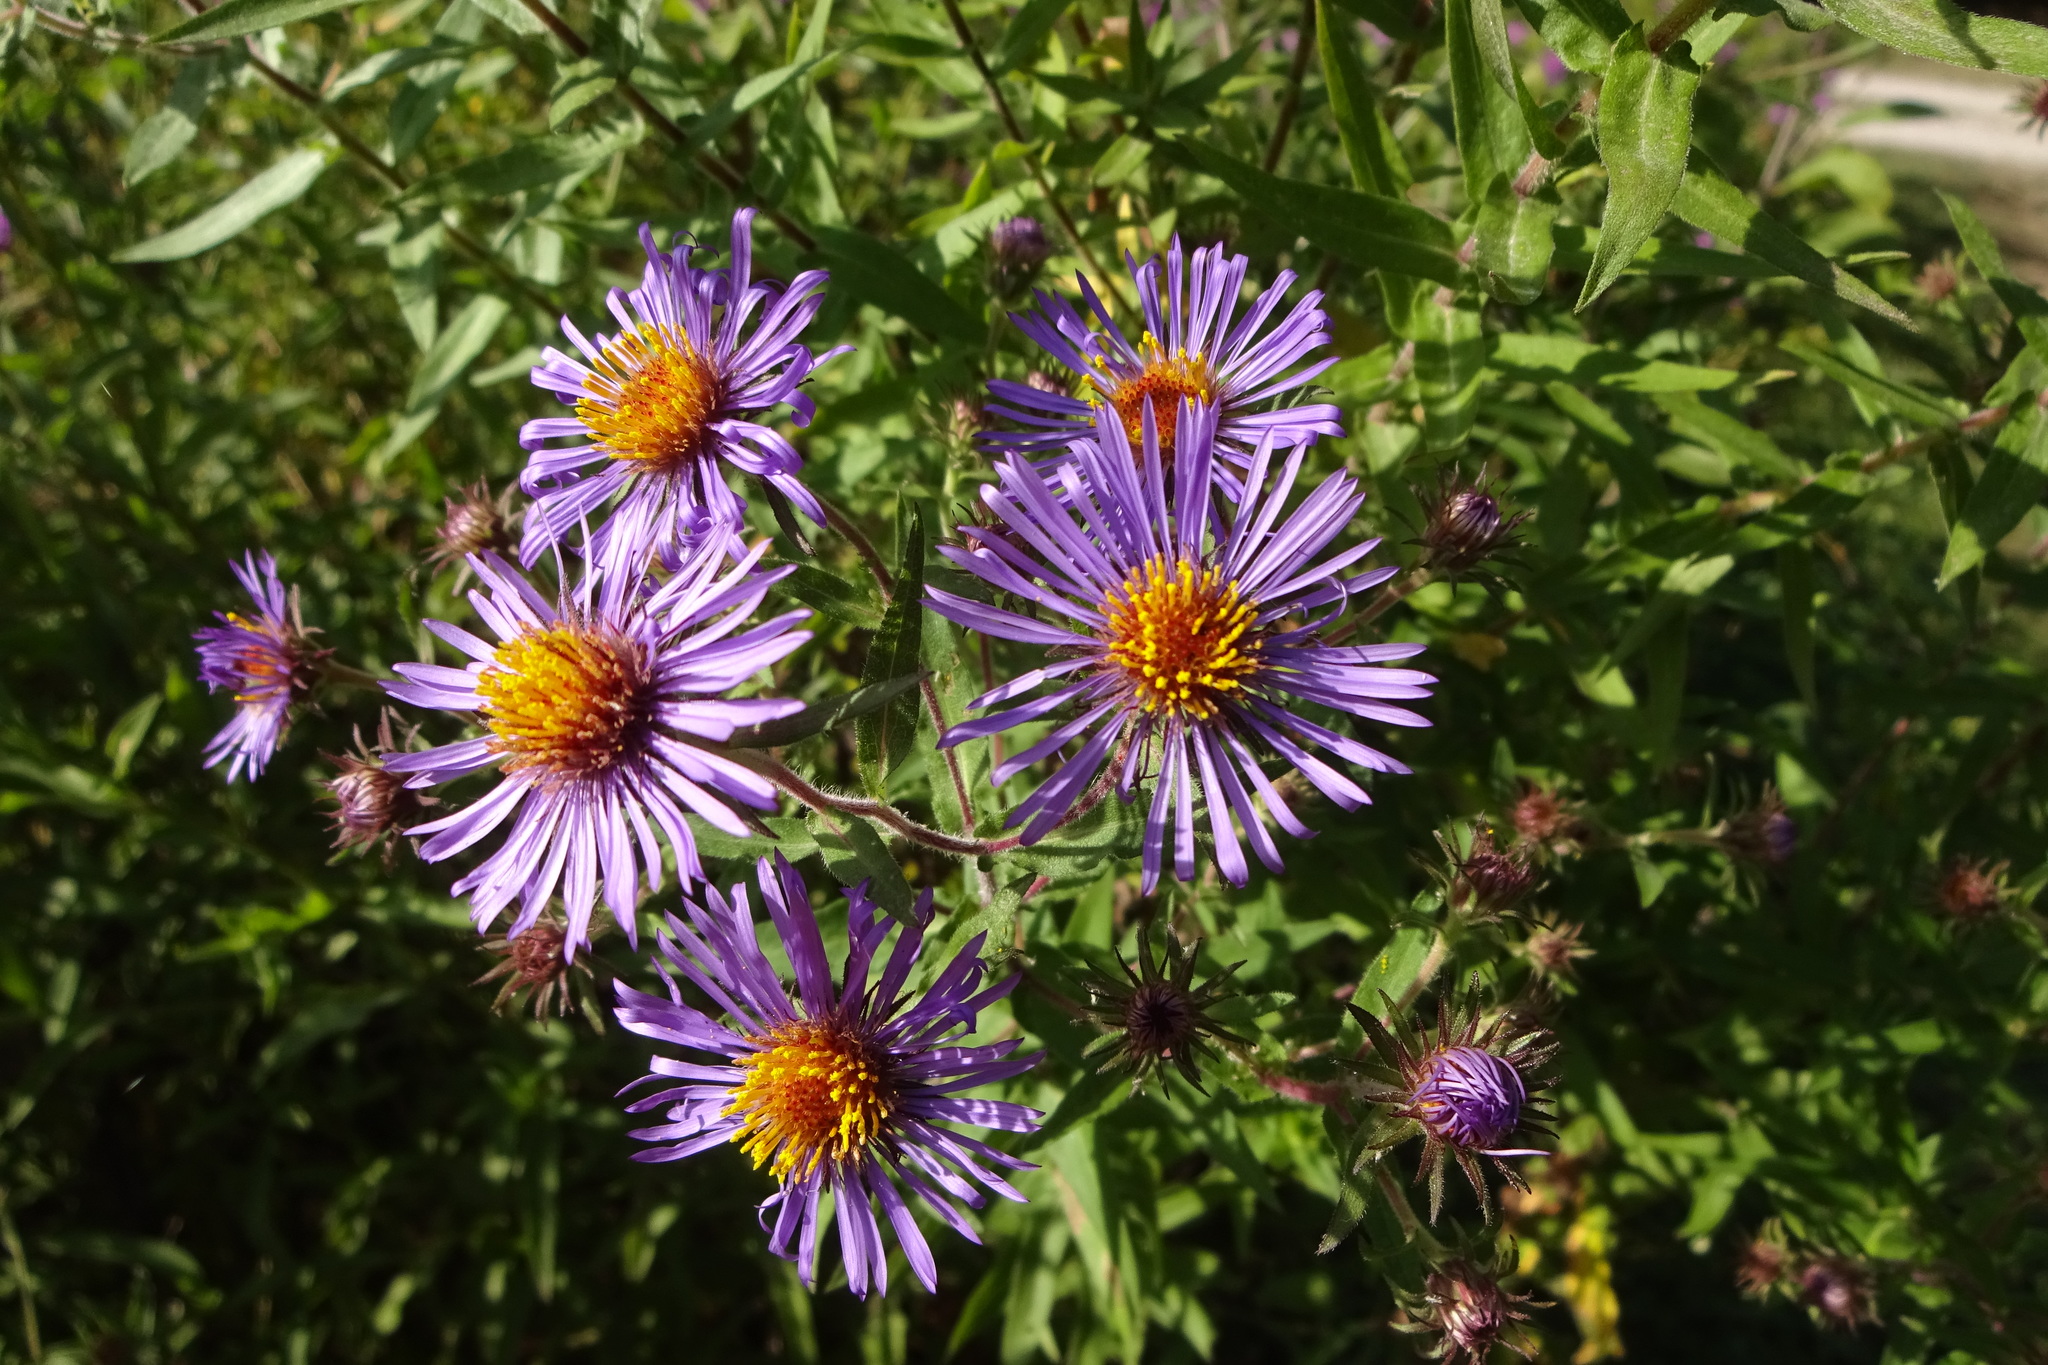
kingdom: Plantae
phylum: Tracheophyta
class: Magnoliopsida
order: Asterales
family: Asteraceae
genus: Symphyotrichum
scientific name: Symphyotrichum novae-angliae
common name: Michaelmas daisy
